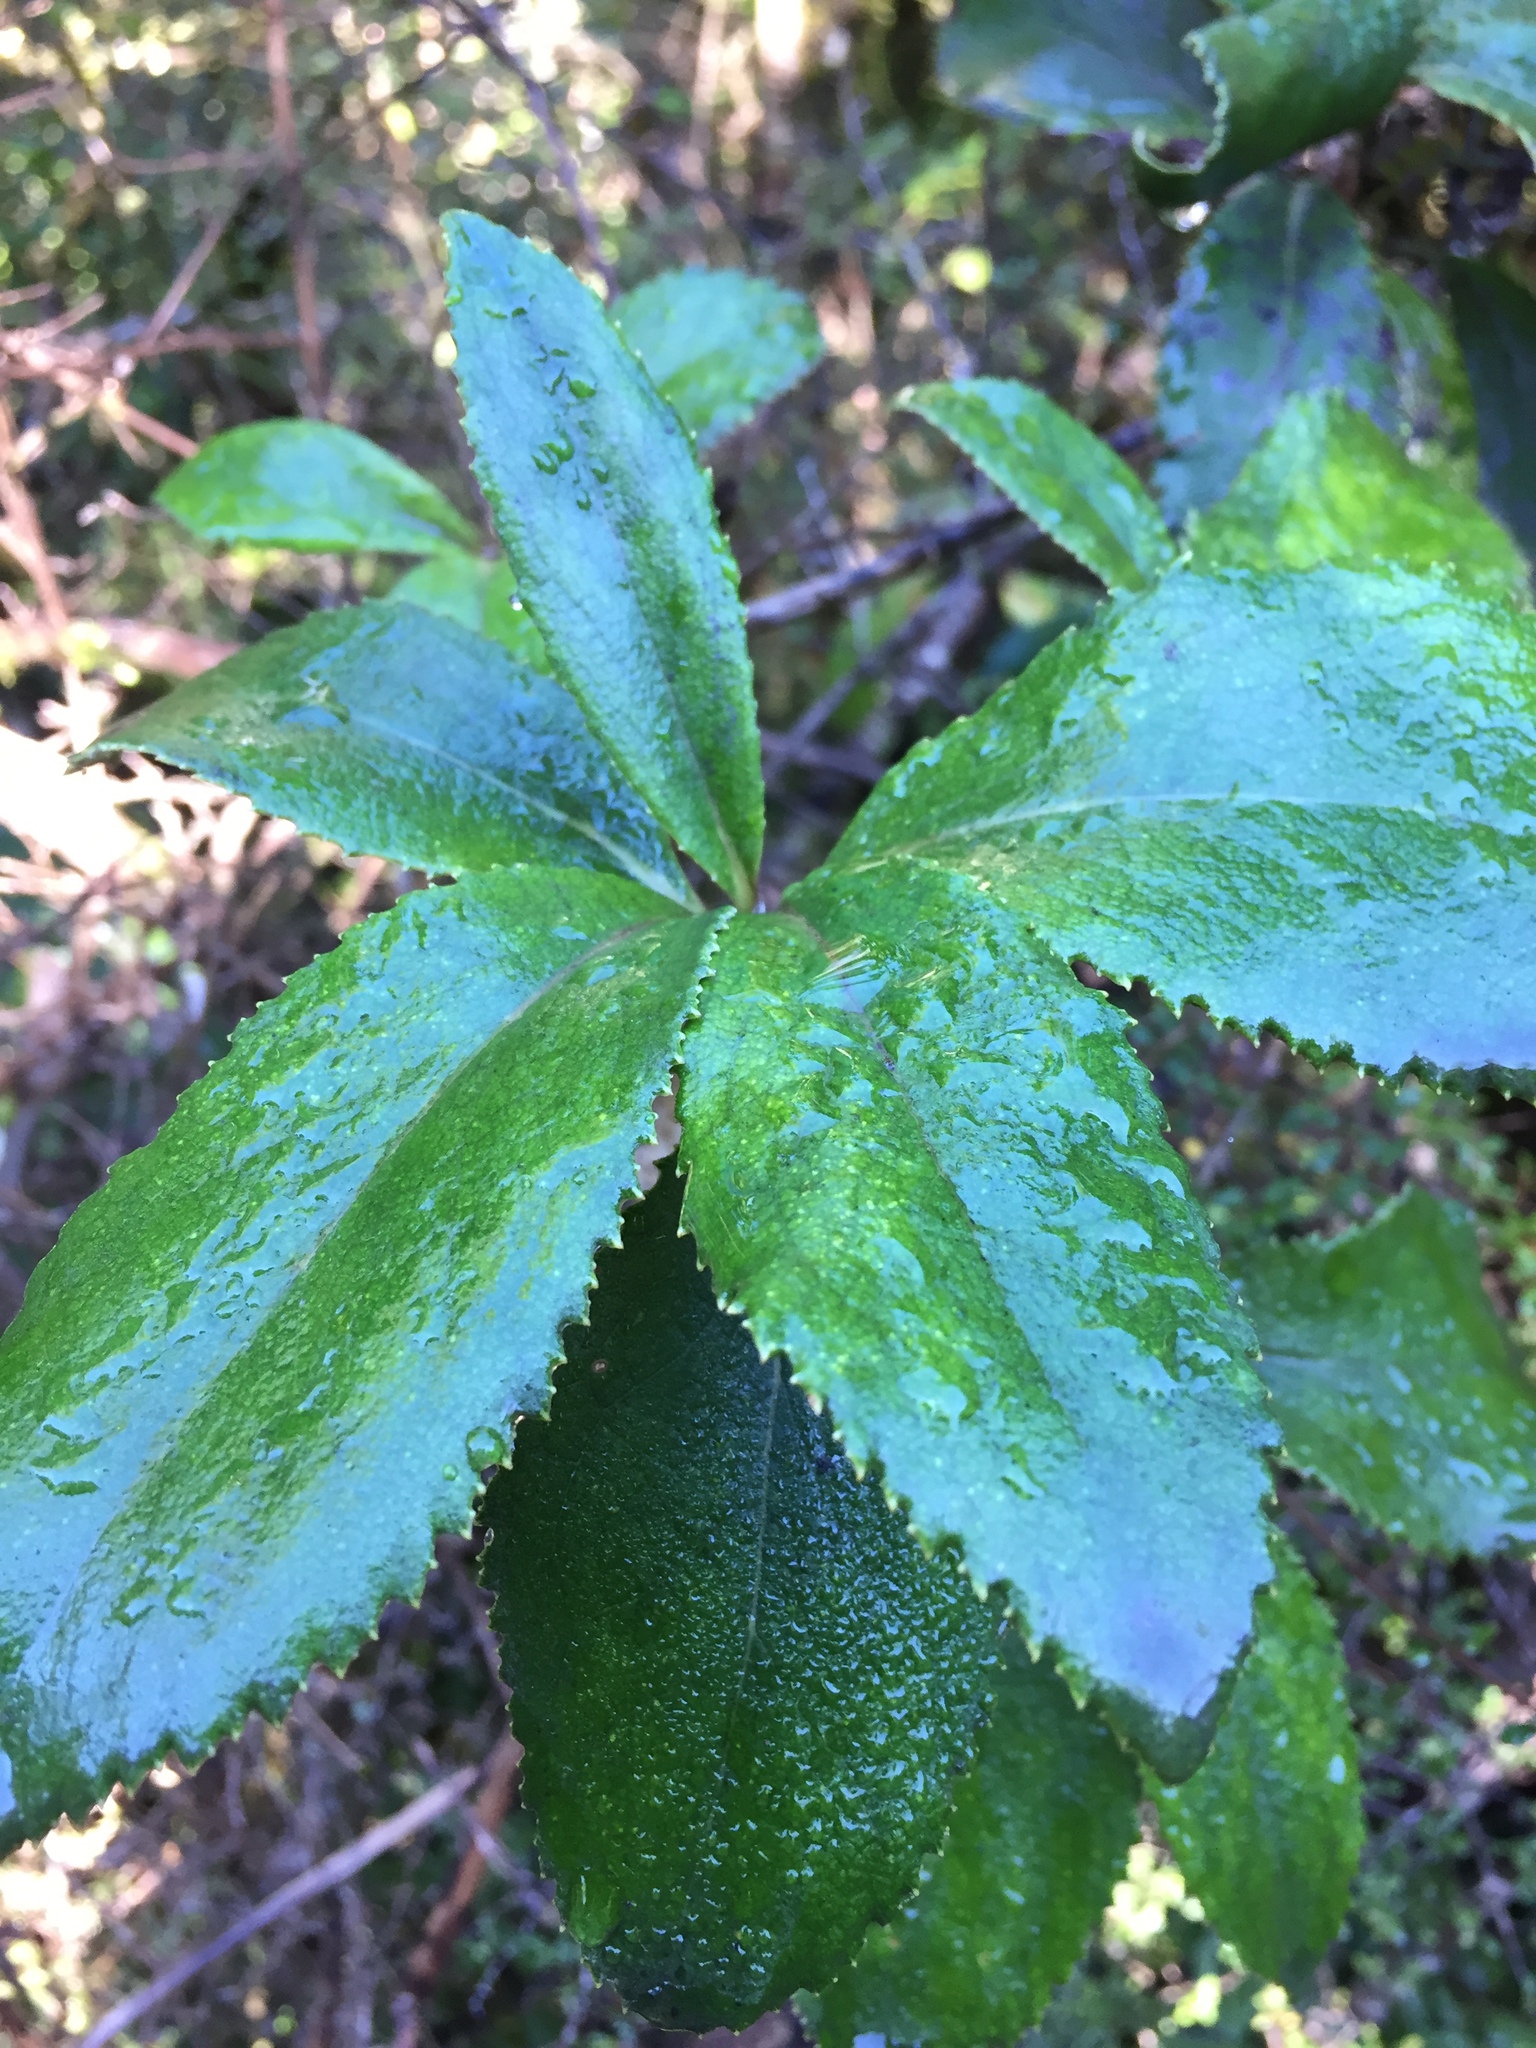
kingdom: Plantae
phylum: Tracheophyta
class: Magnoliopsida
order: Asterales
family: Asteraceae
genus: Macrolearia
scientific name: Macrolearia colensoi
